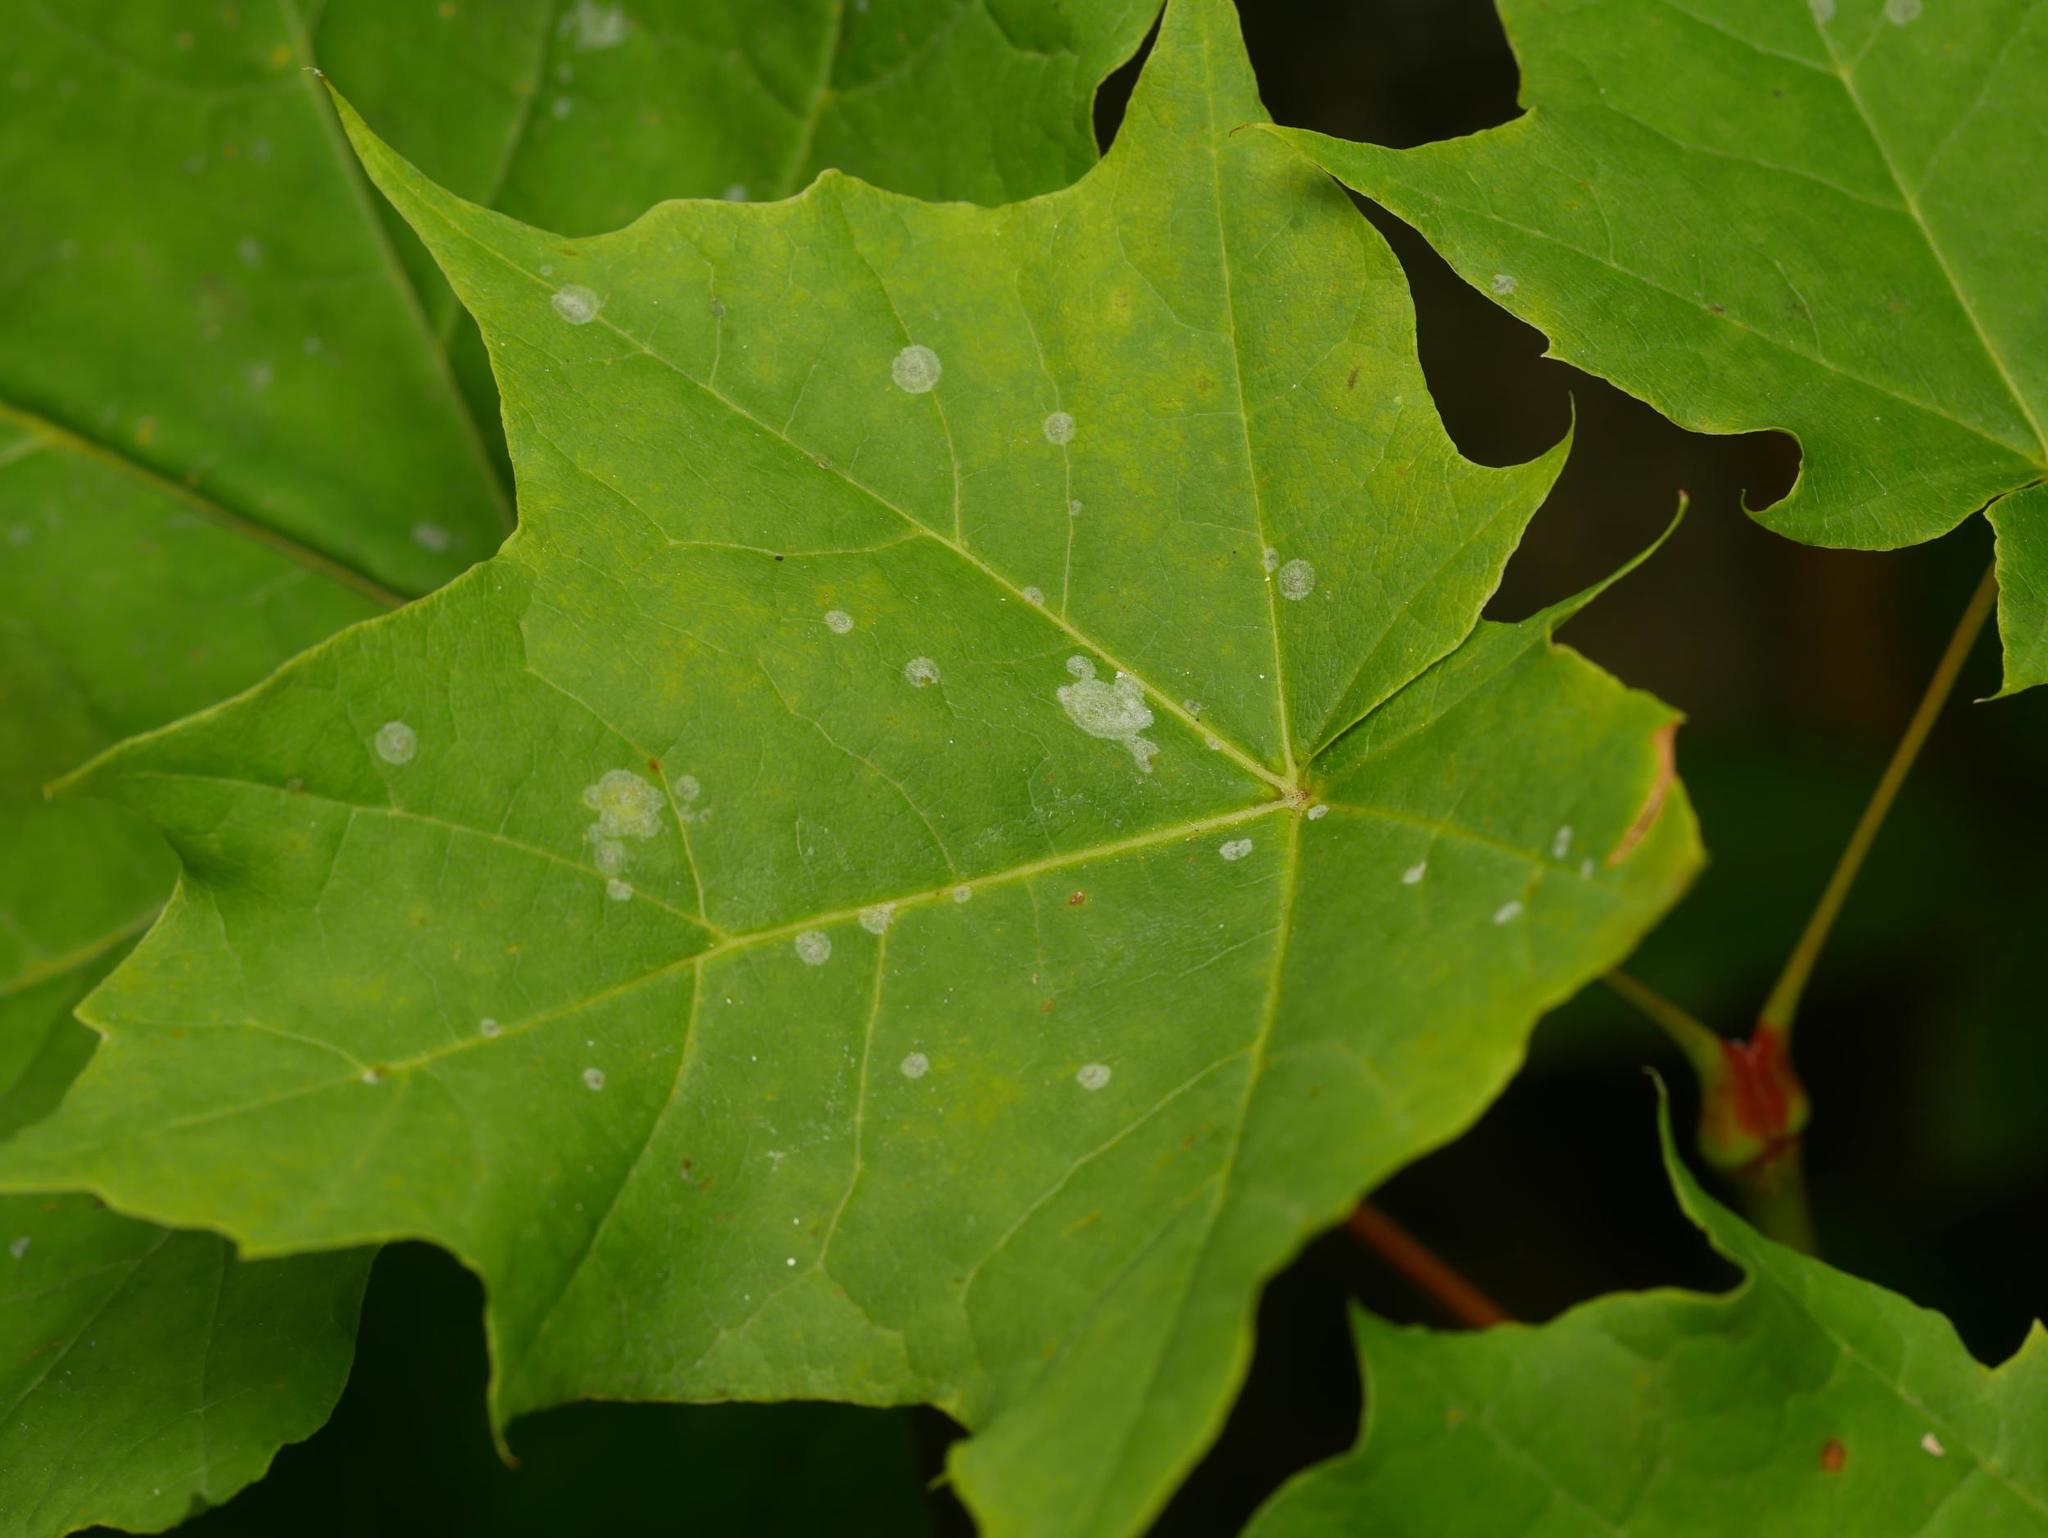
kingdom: Fungi
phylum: Ascomycota
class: Leotiomycetes
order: Helotiales
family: Erysiphaceae
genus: Sawadaea
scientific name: Sawadaea tulasnei
